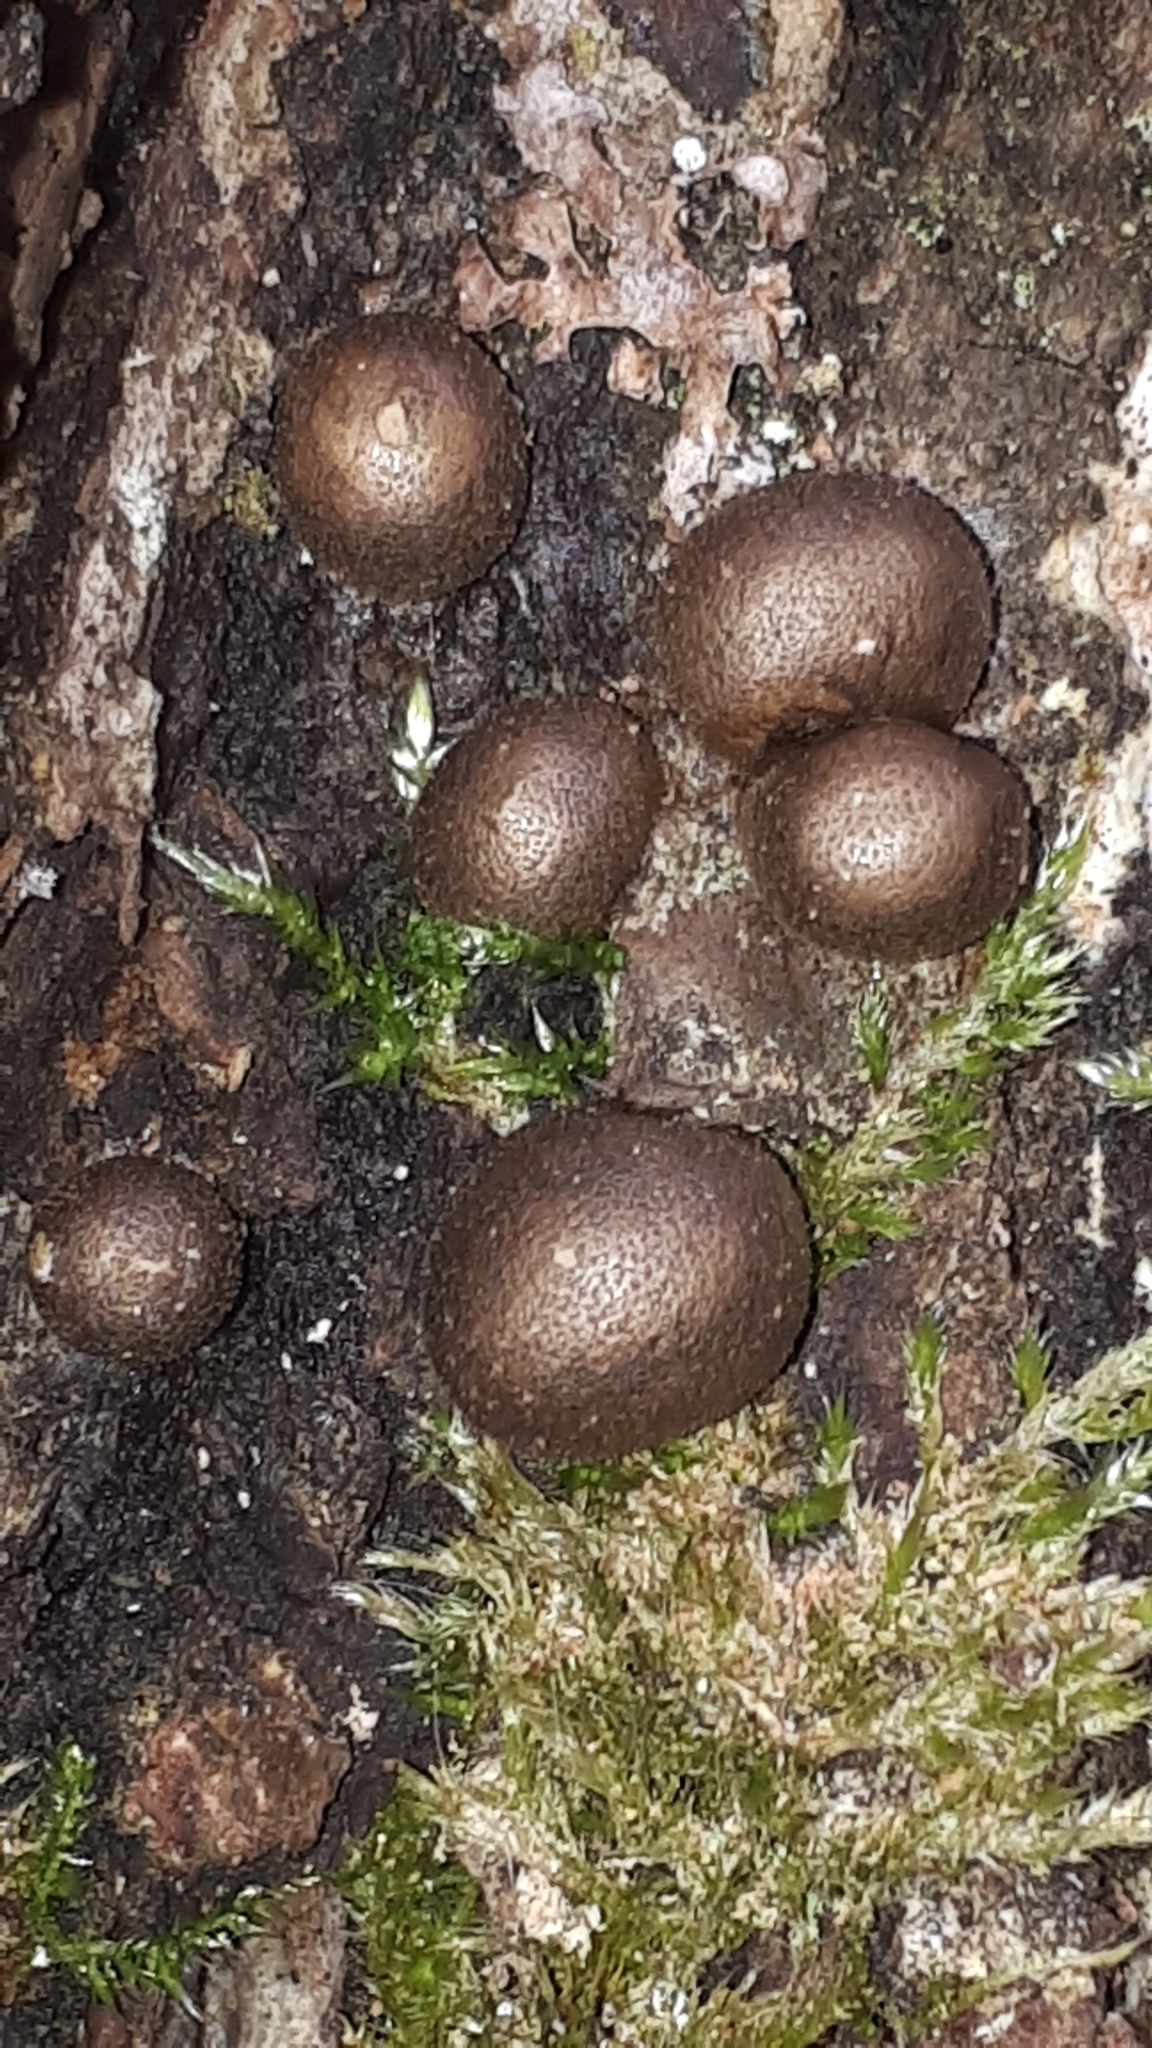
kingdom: Protozoa
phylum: Mycetozoa
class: Myxomycetes
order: Cribrariales
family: Tubiferaceae
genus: Lycogala
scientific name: Lycogala epidendrum
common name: Wolf's milk
